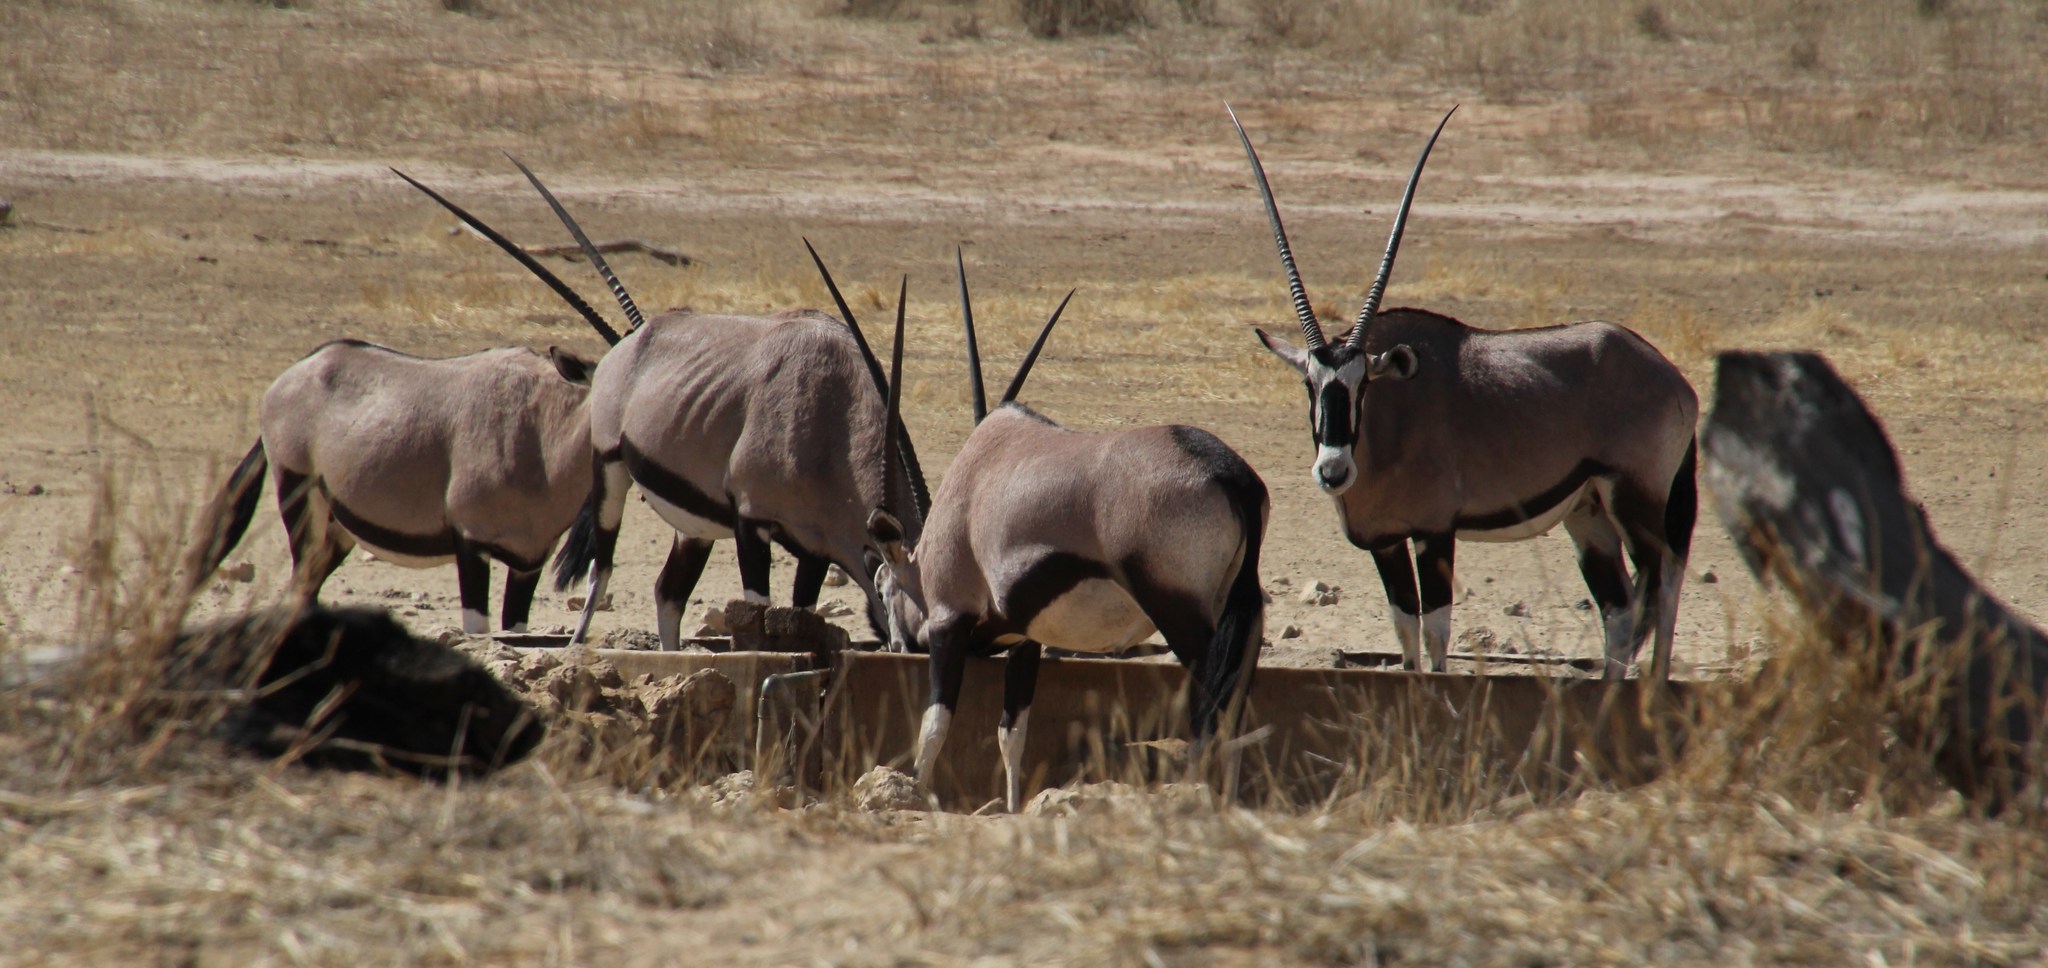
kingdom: Animalia
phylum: Chordata
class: Mammalia
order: Artiodactyla
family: Bovidae
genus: Oryx
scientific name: Oryx gazella
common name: Gemsbok
